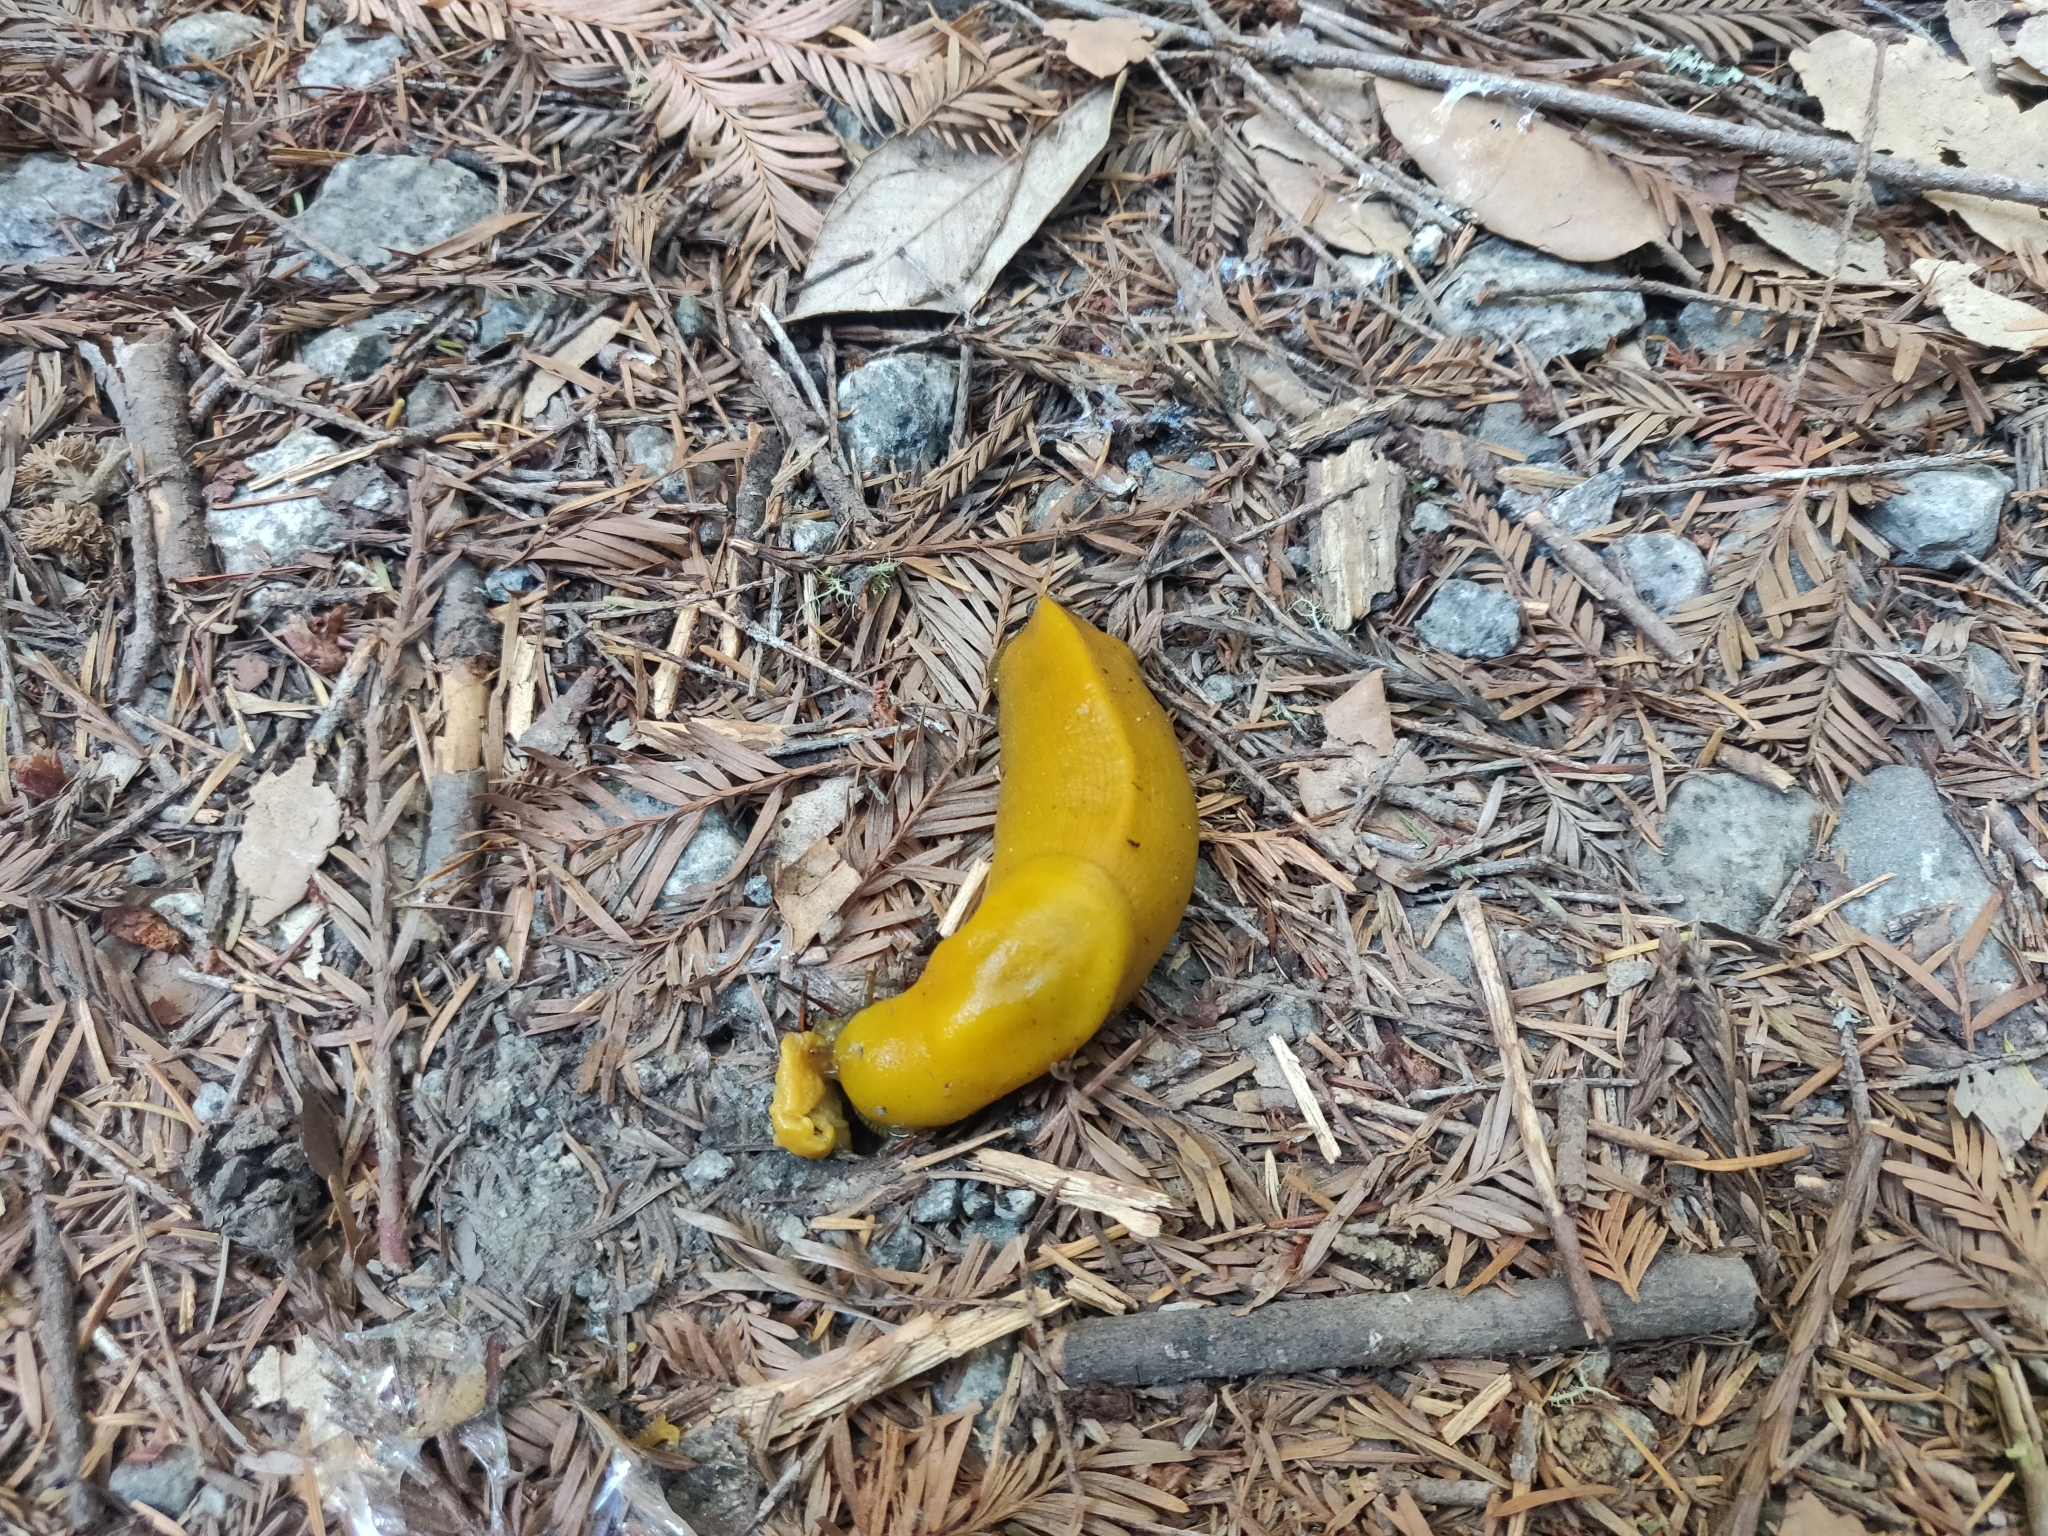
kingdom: Animalia
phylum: Mollusca
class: Gastropoda
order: Stylommatophora
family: Ariolimacidae
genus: Ariolimax
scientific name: Ariolimax californicus
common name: California banana slug
